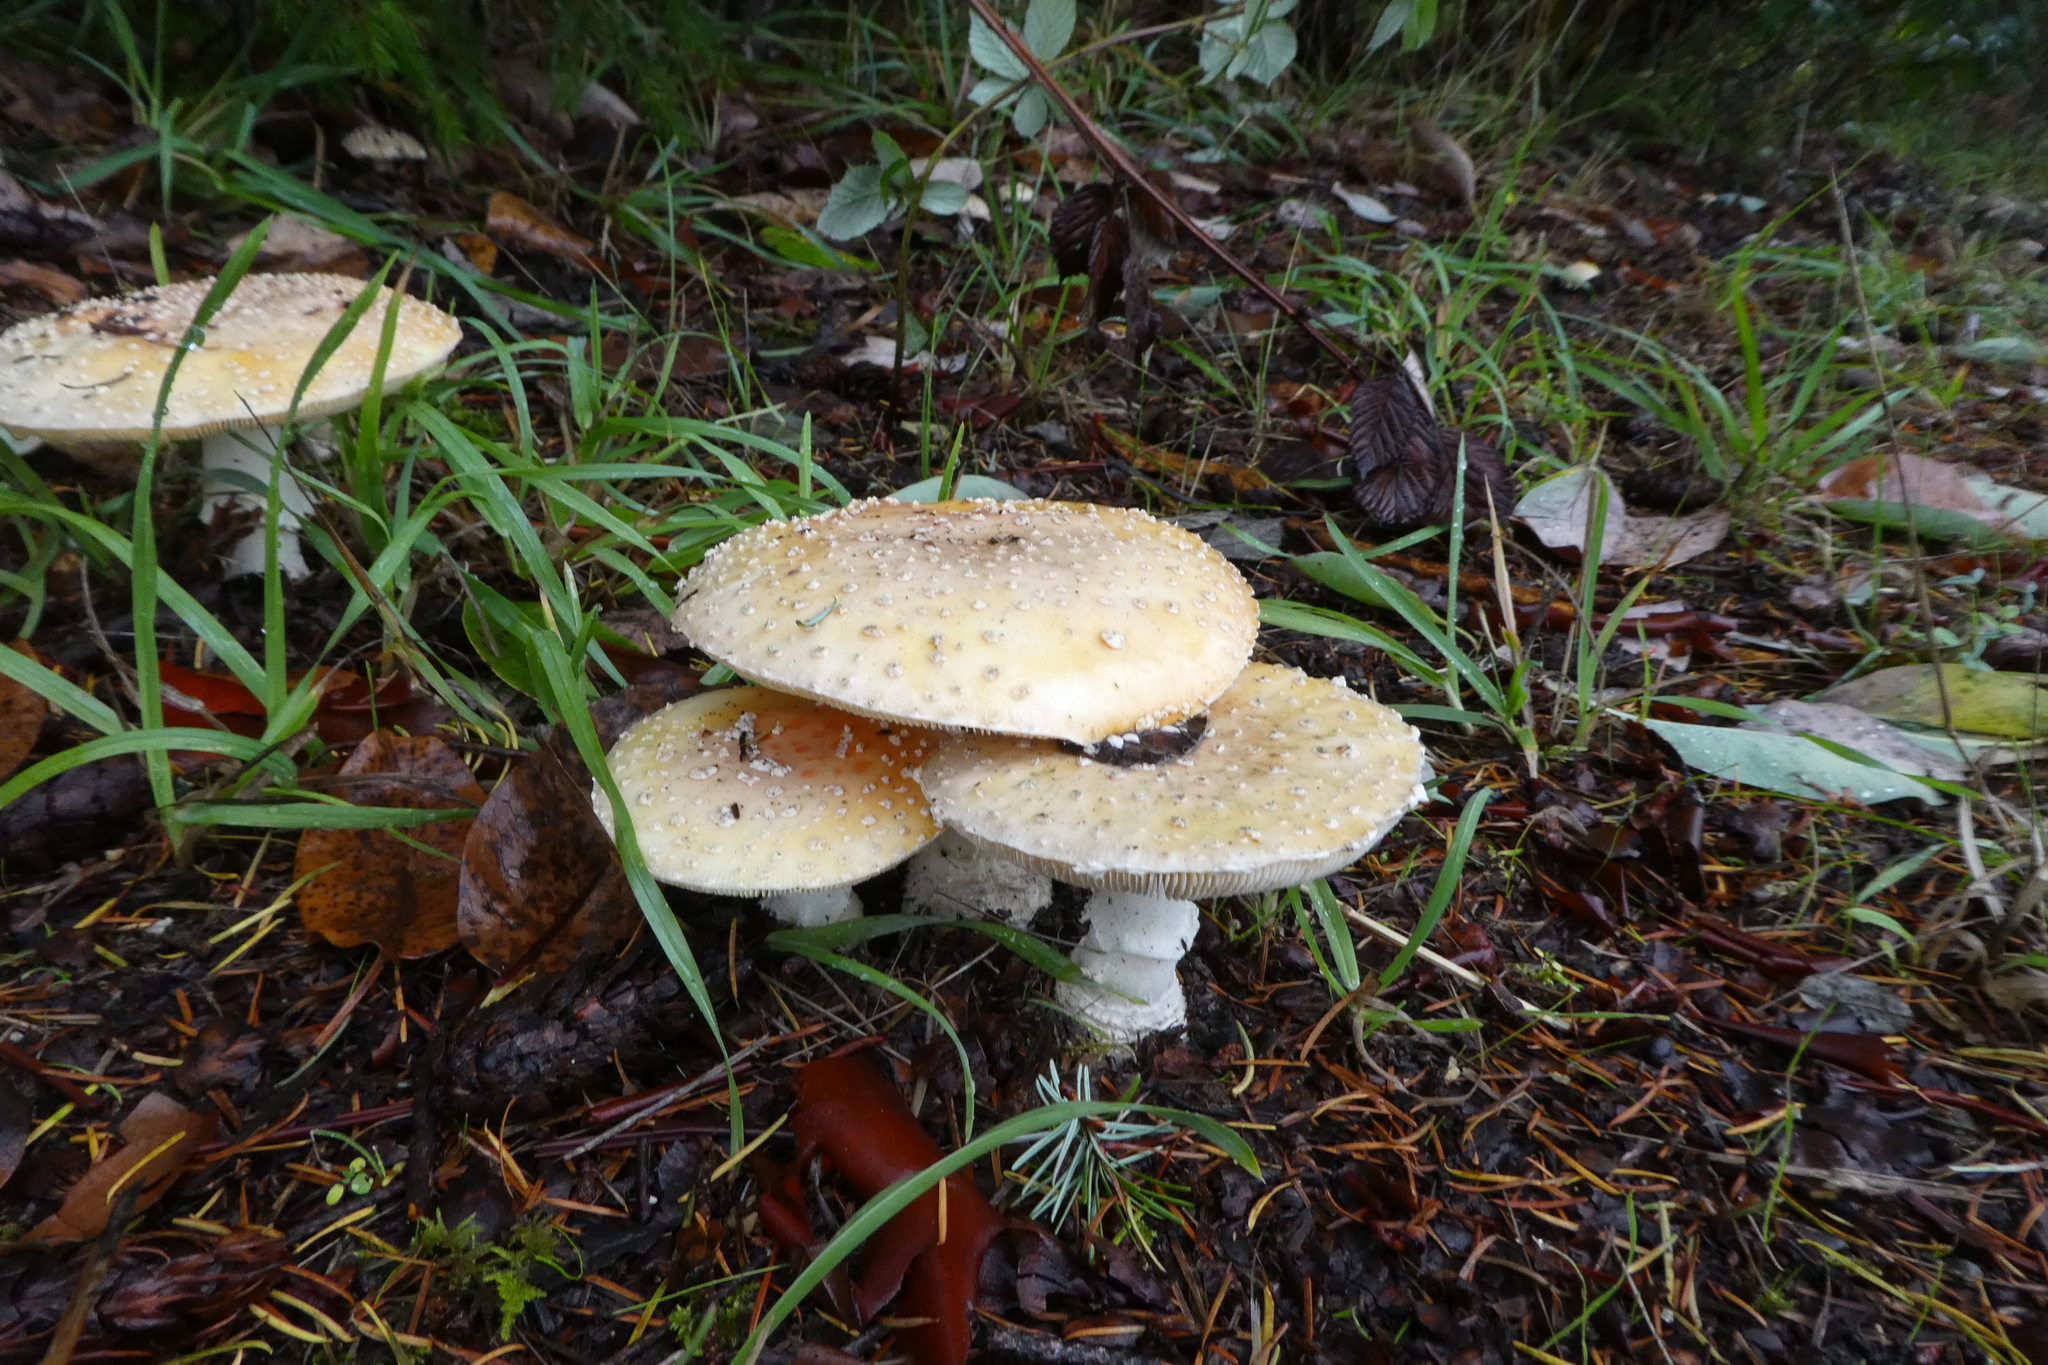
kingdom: Fungi
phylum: Basidiomycota
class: Agaricomycetes
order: Agaricales
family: Amanitaceae
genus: Amanita
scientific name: Amanita muscaria
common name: Fly agaric
